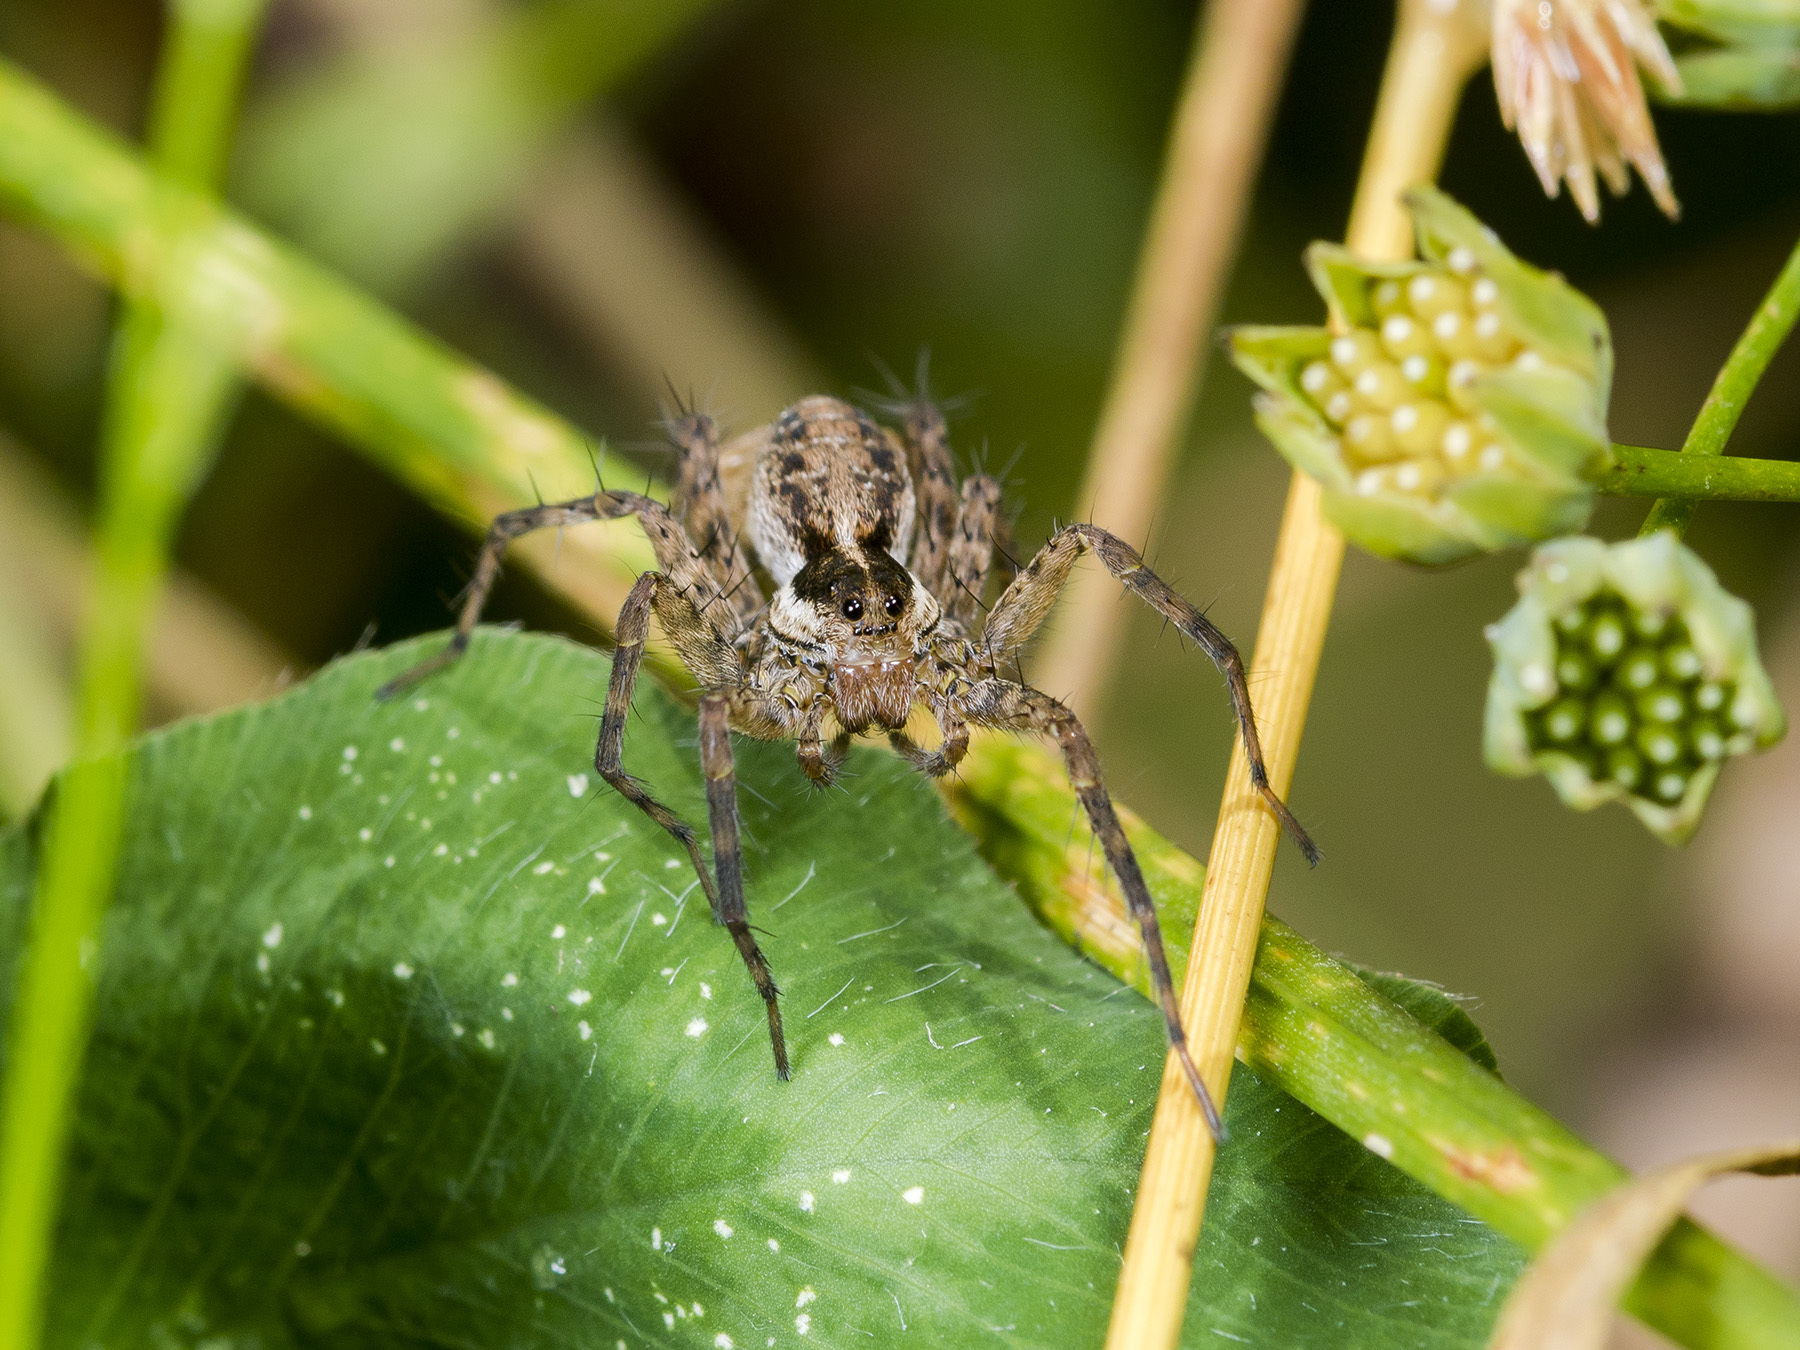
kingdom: Animalia
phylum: Arthropoda
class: Arachnida
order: Araneae
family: Lycosidae
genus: Pardosa
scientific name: Pardosa zonsteini
